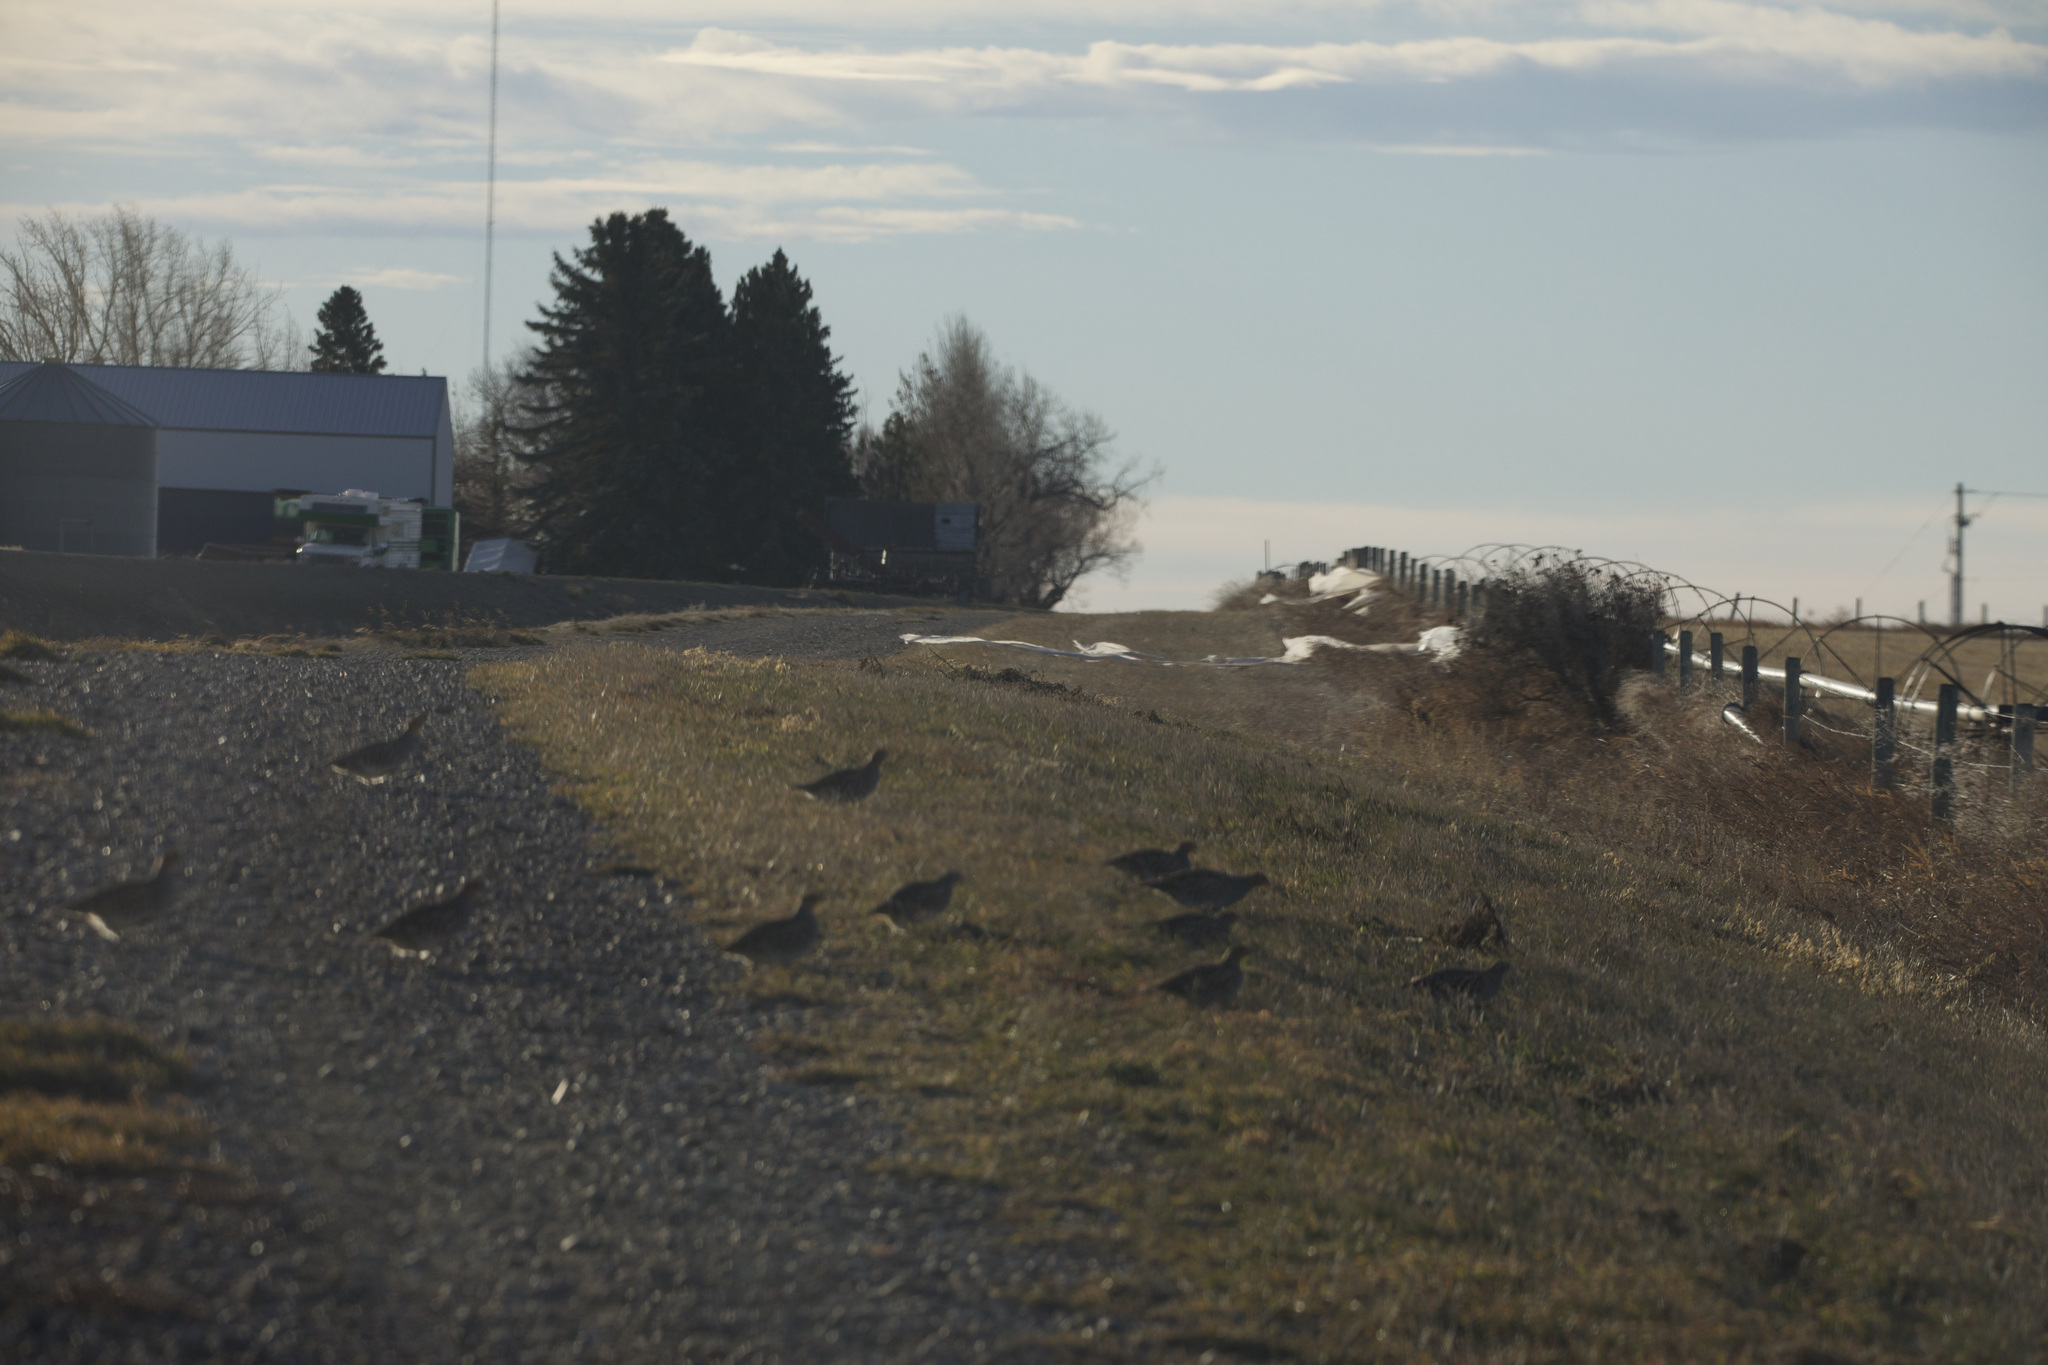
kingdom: Animalia
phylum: Chordata
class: Aves
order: Galliformes
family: Phasianidae
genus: Perdix
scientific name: Perdix perdix
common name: Grey partridge
